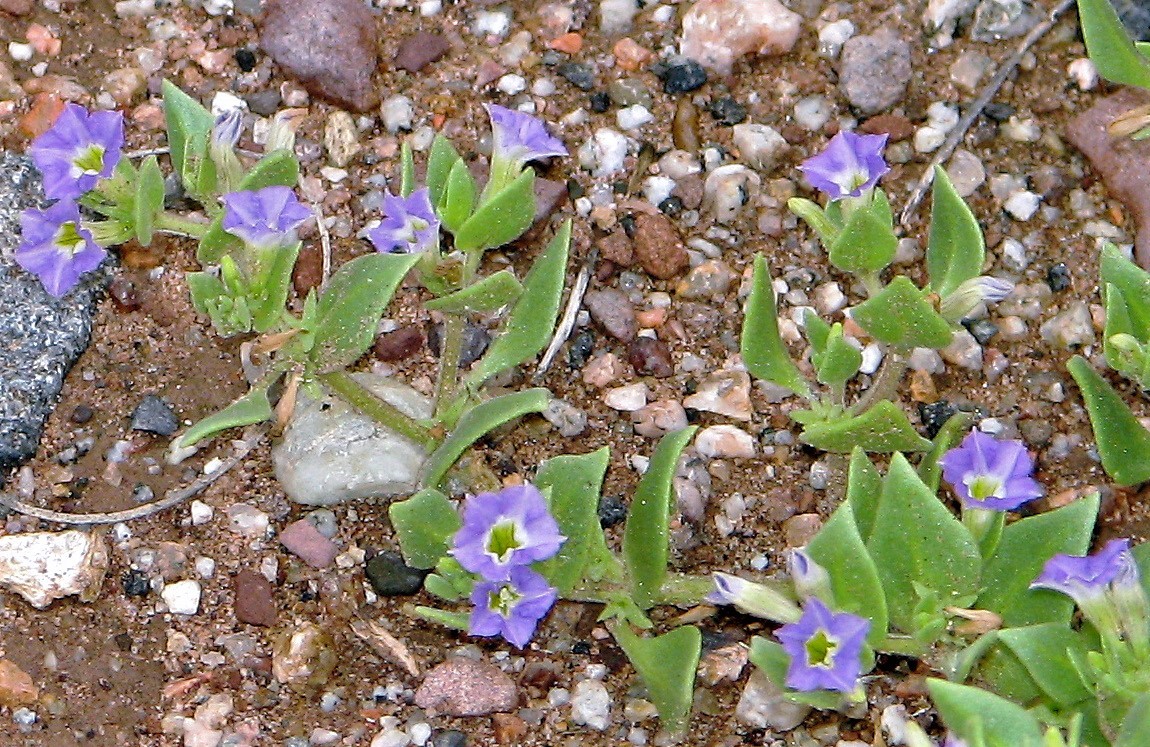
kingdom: Plantae
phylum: Tracheophyta
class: Magnoliopsida
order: Solanales
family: Solanaceae
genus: Sclerophylax
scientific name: Sclerophylax cynocrambe
